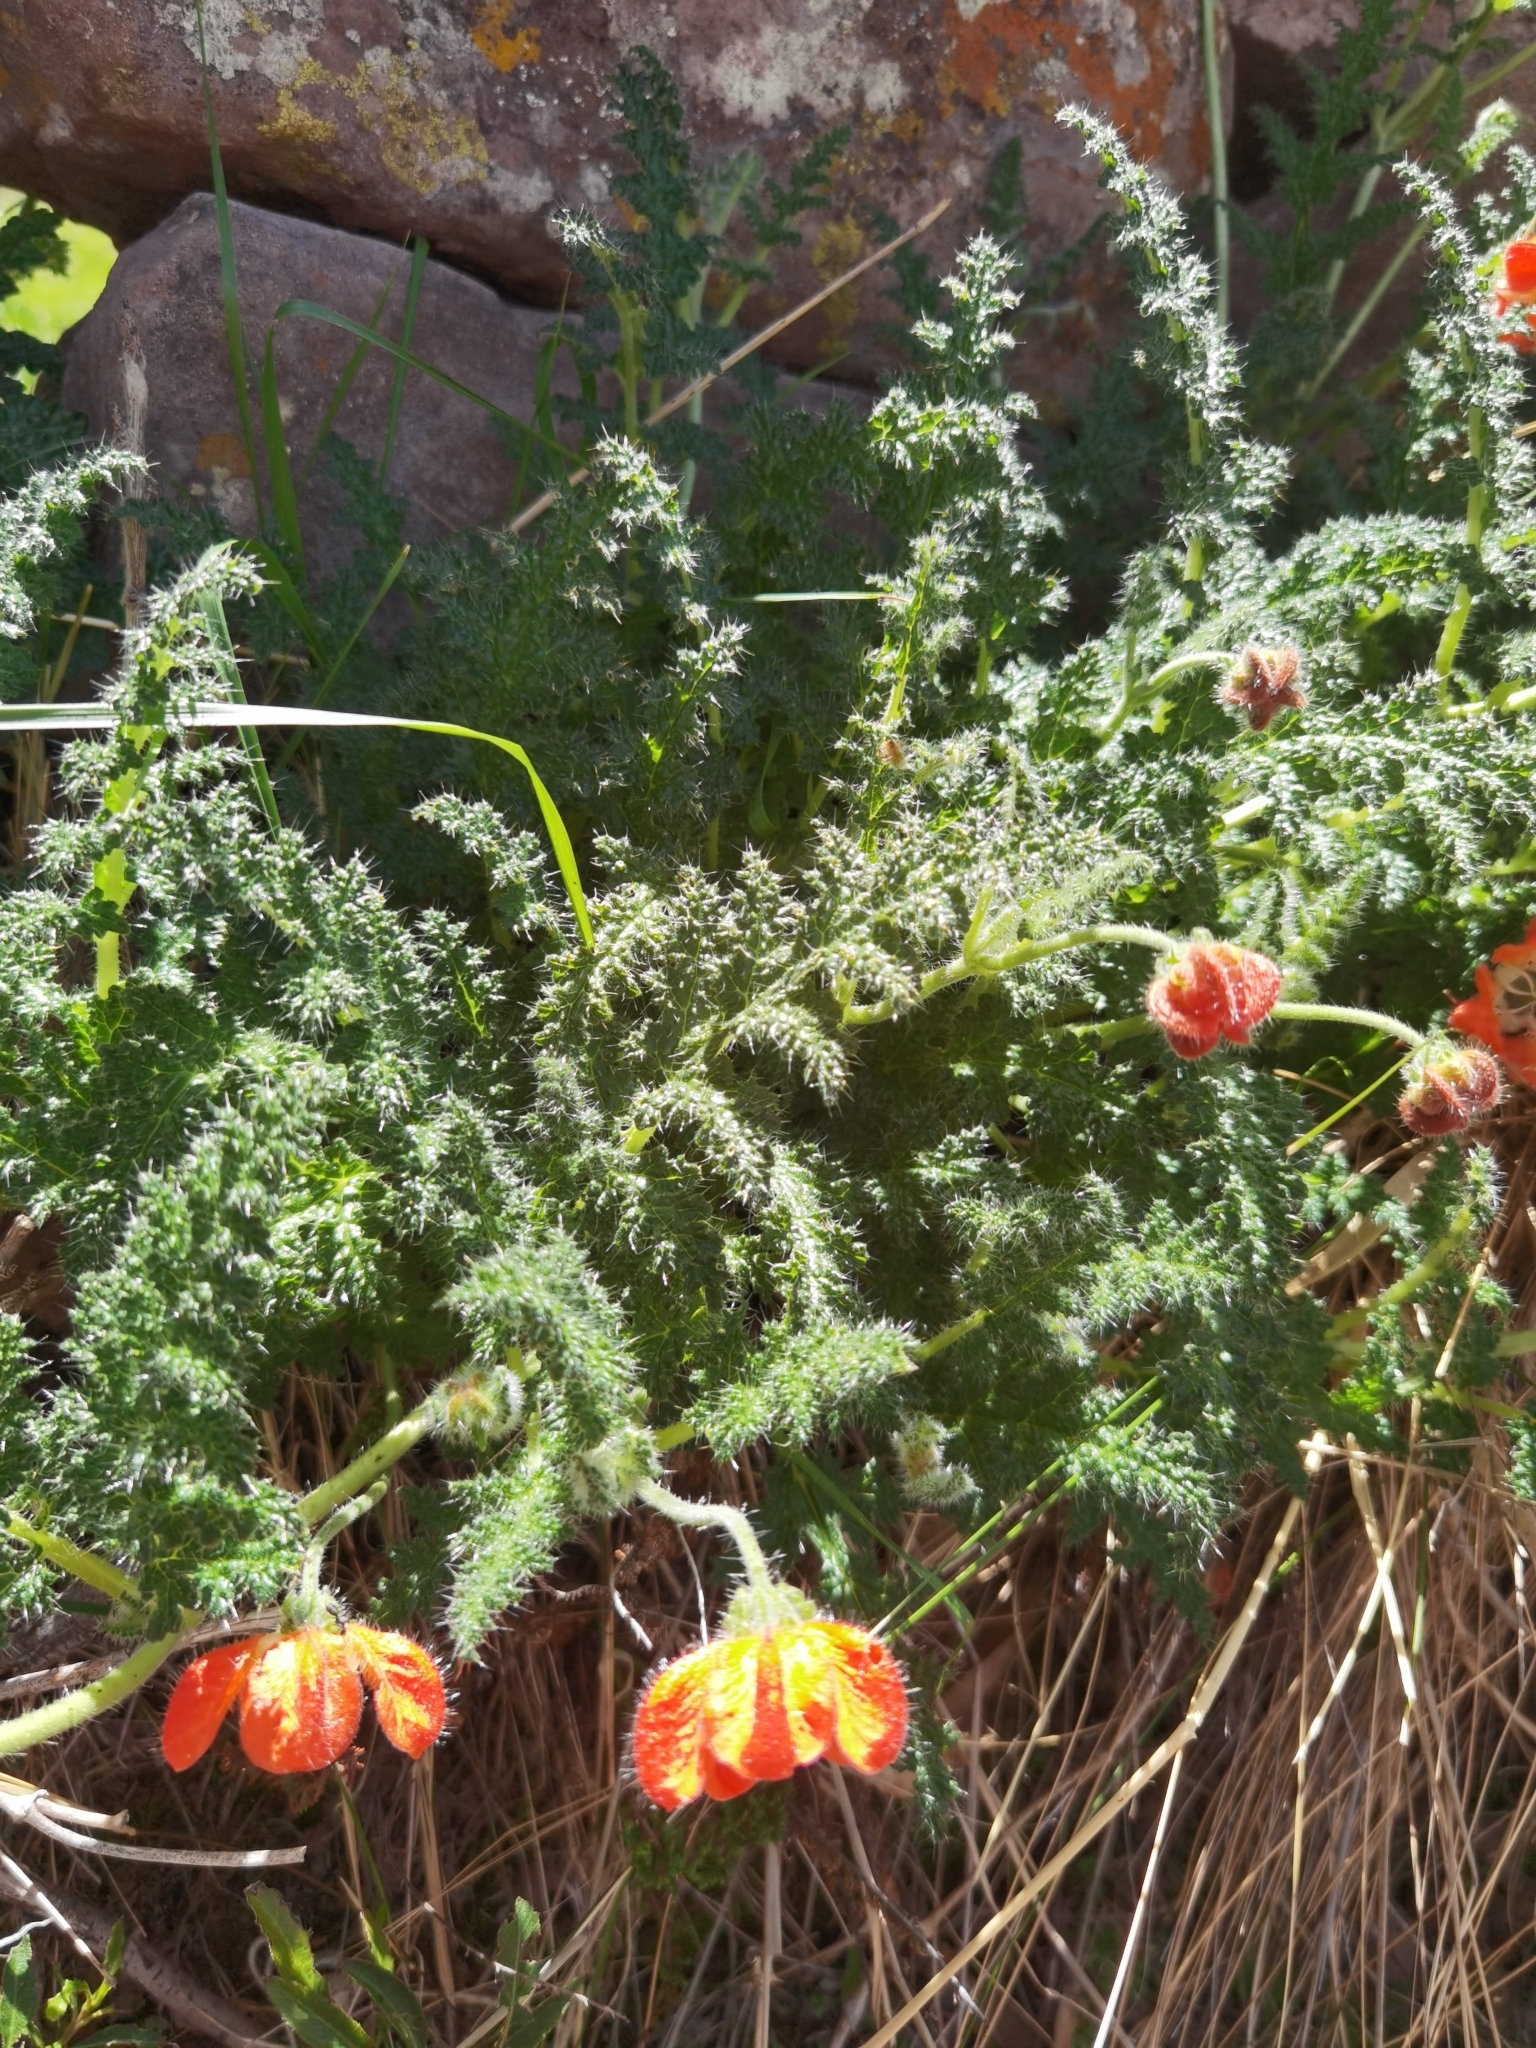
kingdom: Plantae
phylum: Tracheophyta
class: Magnoliopsida
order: Cornales
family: Loasaceae
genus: Caiophora
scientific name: Caiophora pentlandii
